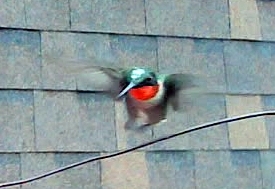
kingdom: Animalia
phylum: Chordata
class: Aves
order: Apodiformes
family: Trochilidae
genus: Archilochus
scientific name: Archilochus colubris
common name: Ruby-throated hummingbird
